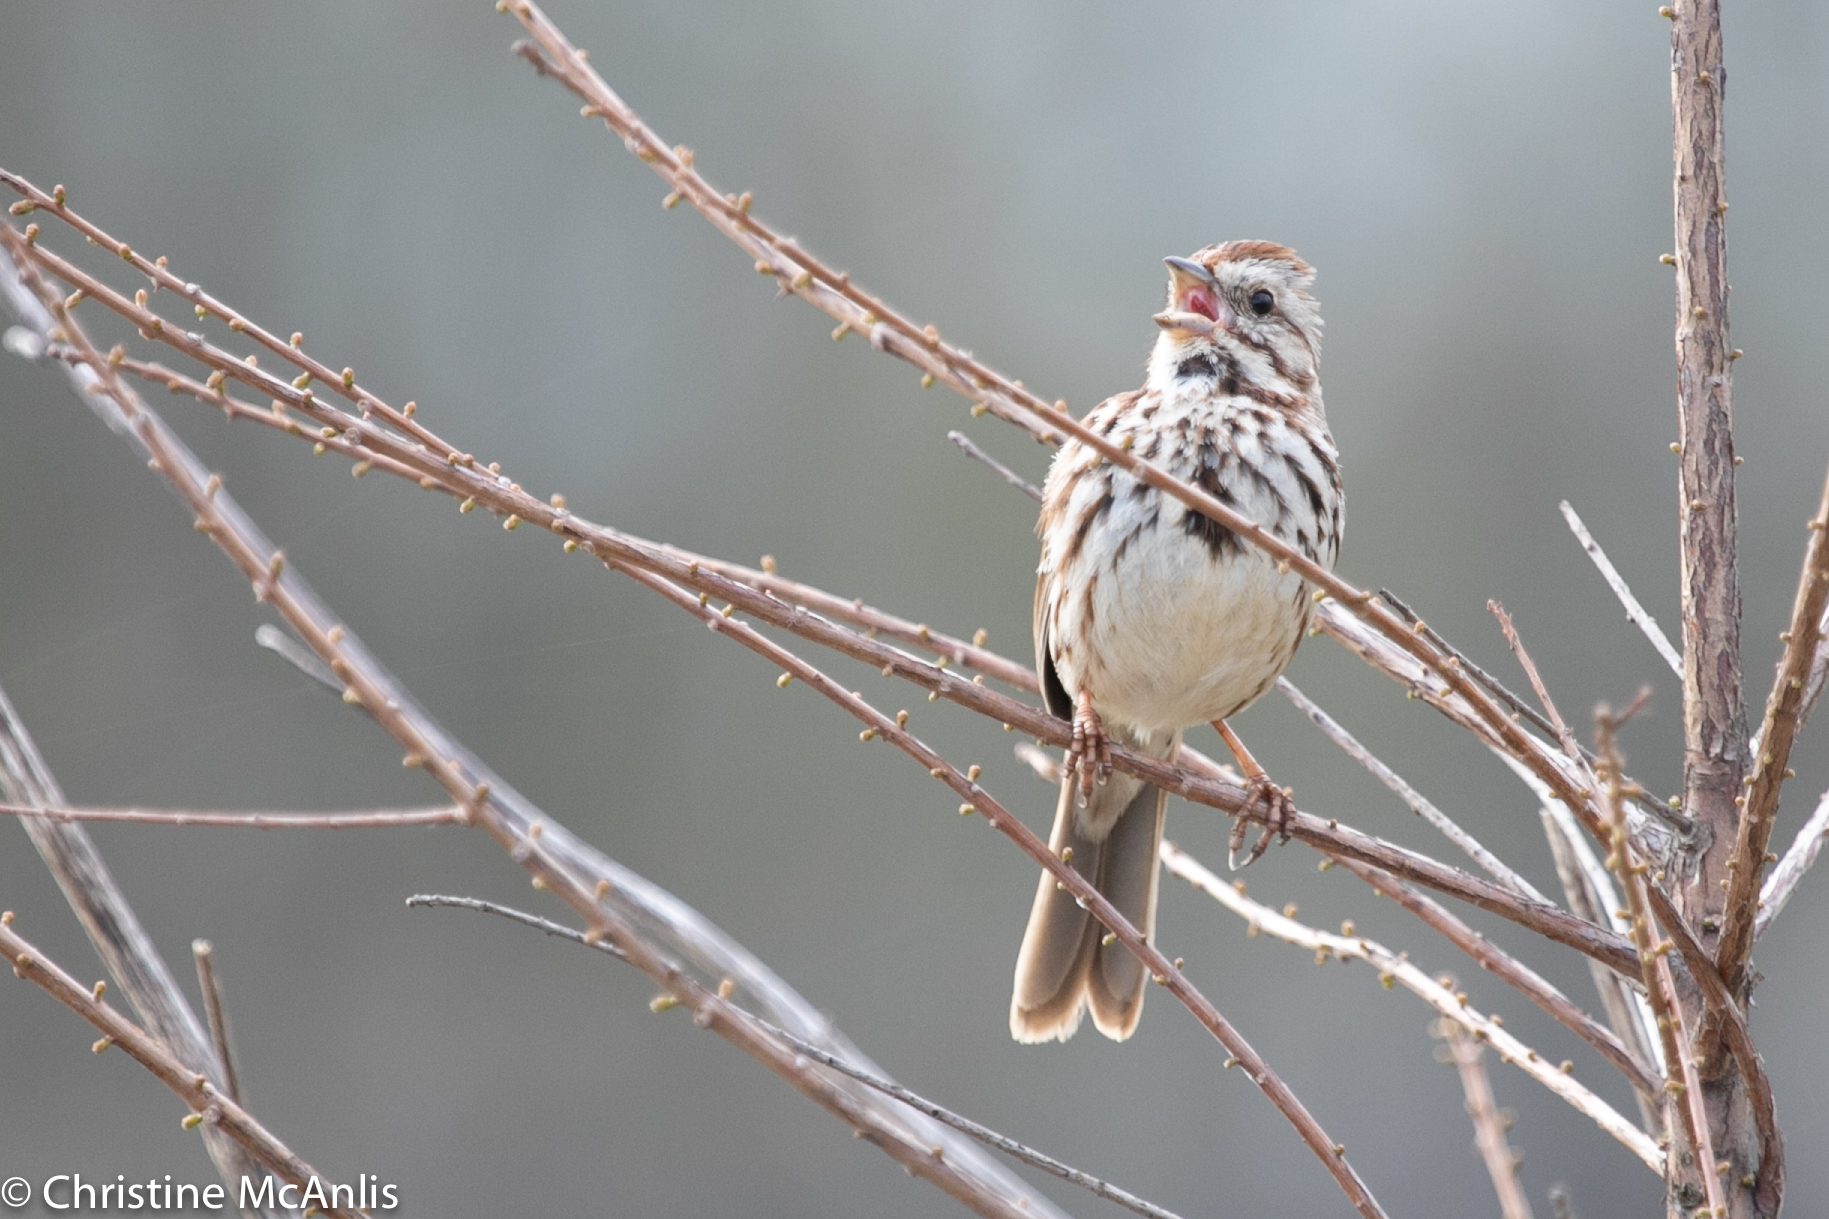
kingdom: Animalia
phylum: Chordata
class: Aves
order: Passeriformes
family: Passerellidae
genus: Melospiza
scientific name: Melospiza melodia
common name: Song sparrow
